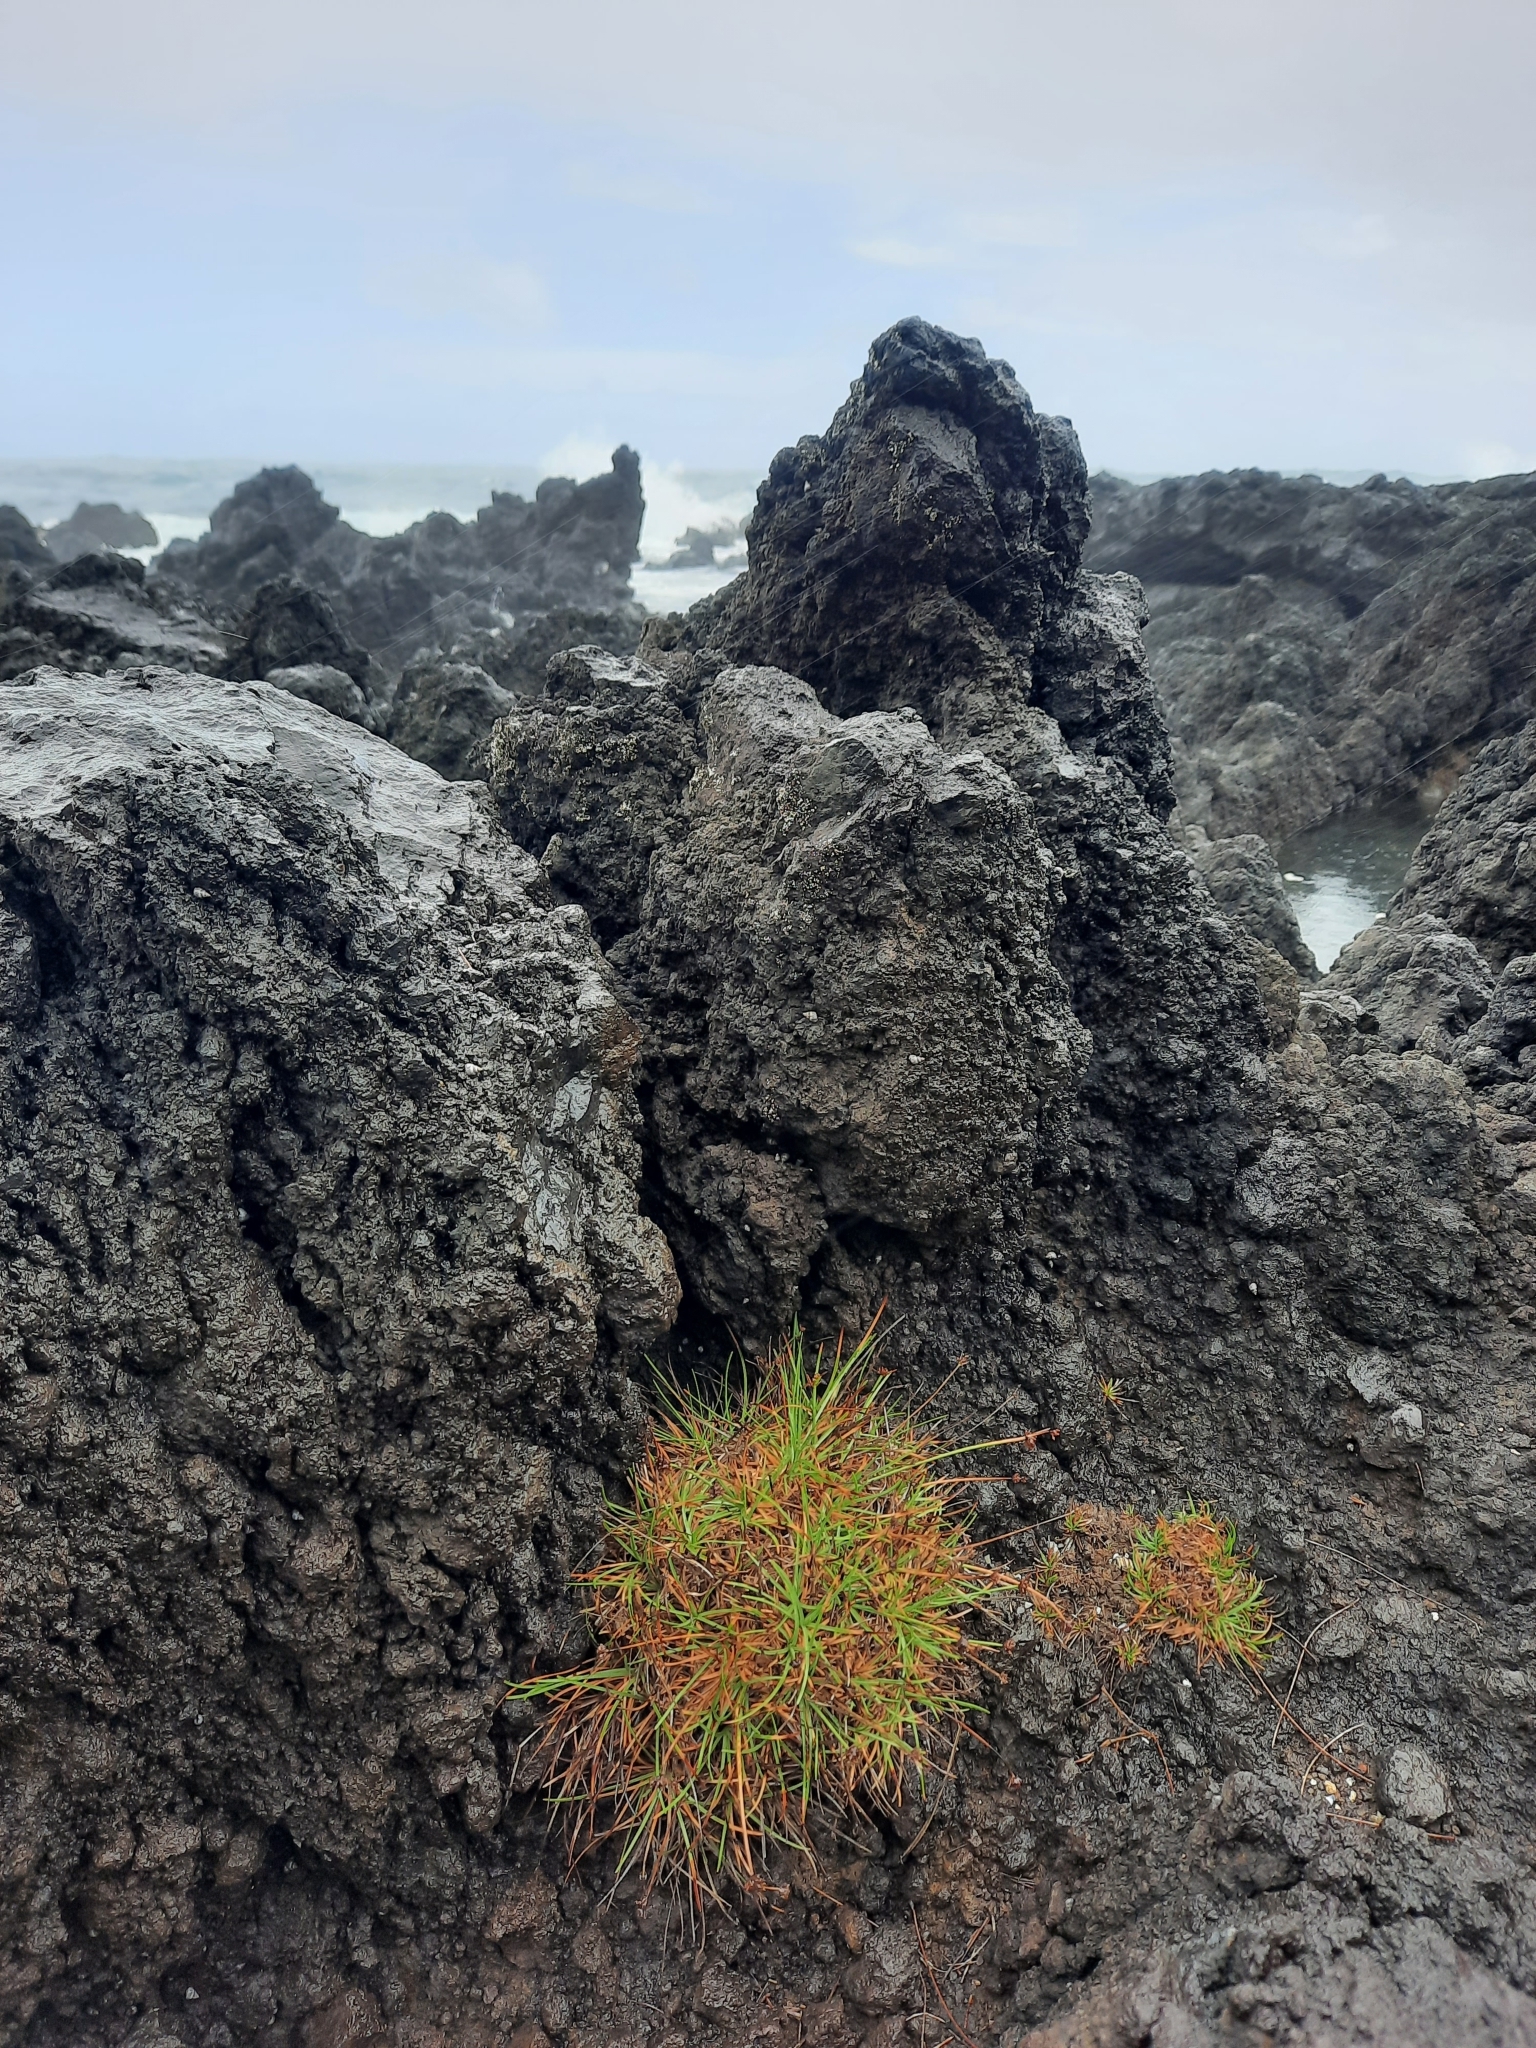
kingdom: Plantae
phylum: Tracheophyta
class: Liliopsida
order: Poales
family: Cyperaceae
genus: Fimbristylis
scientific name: Fimbristylis cymosa
